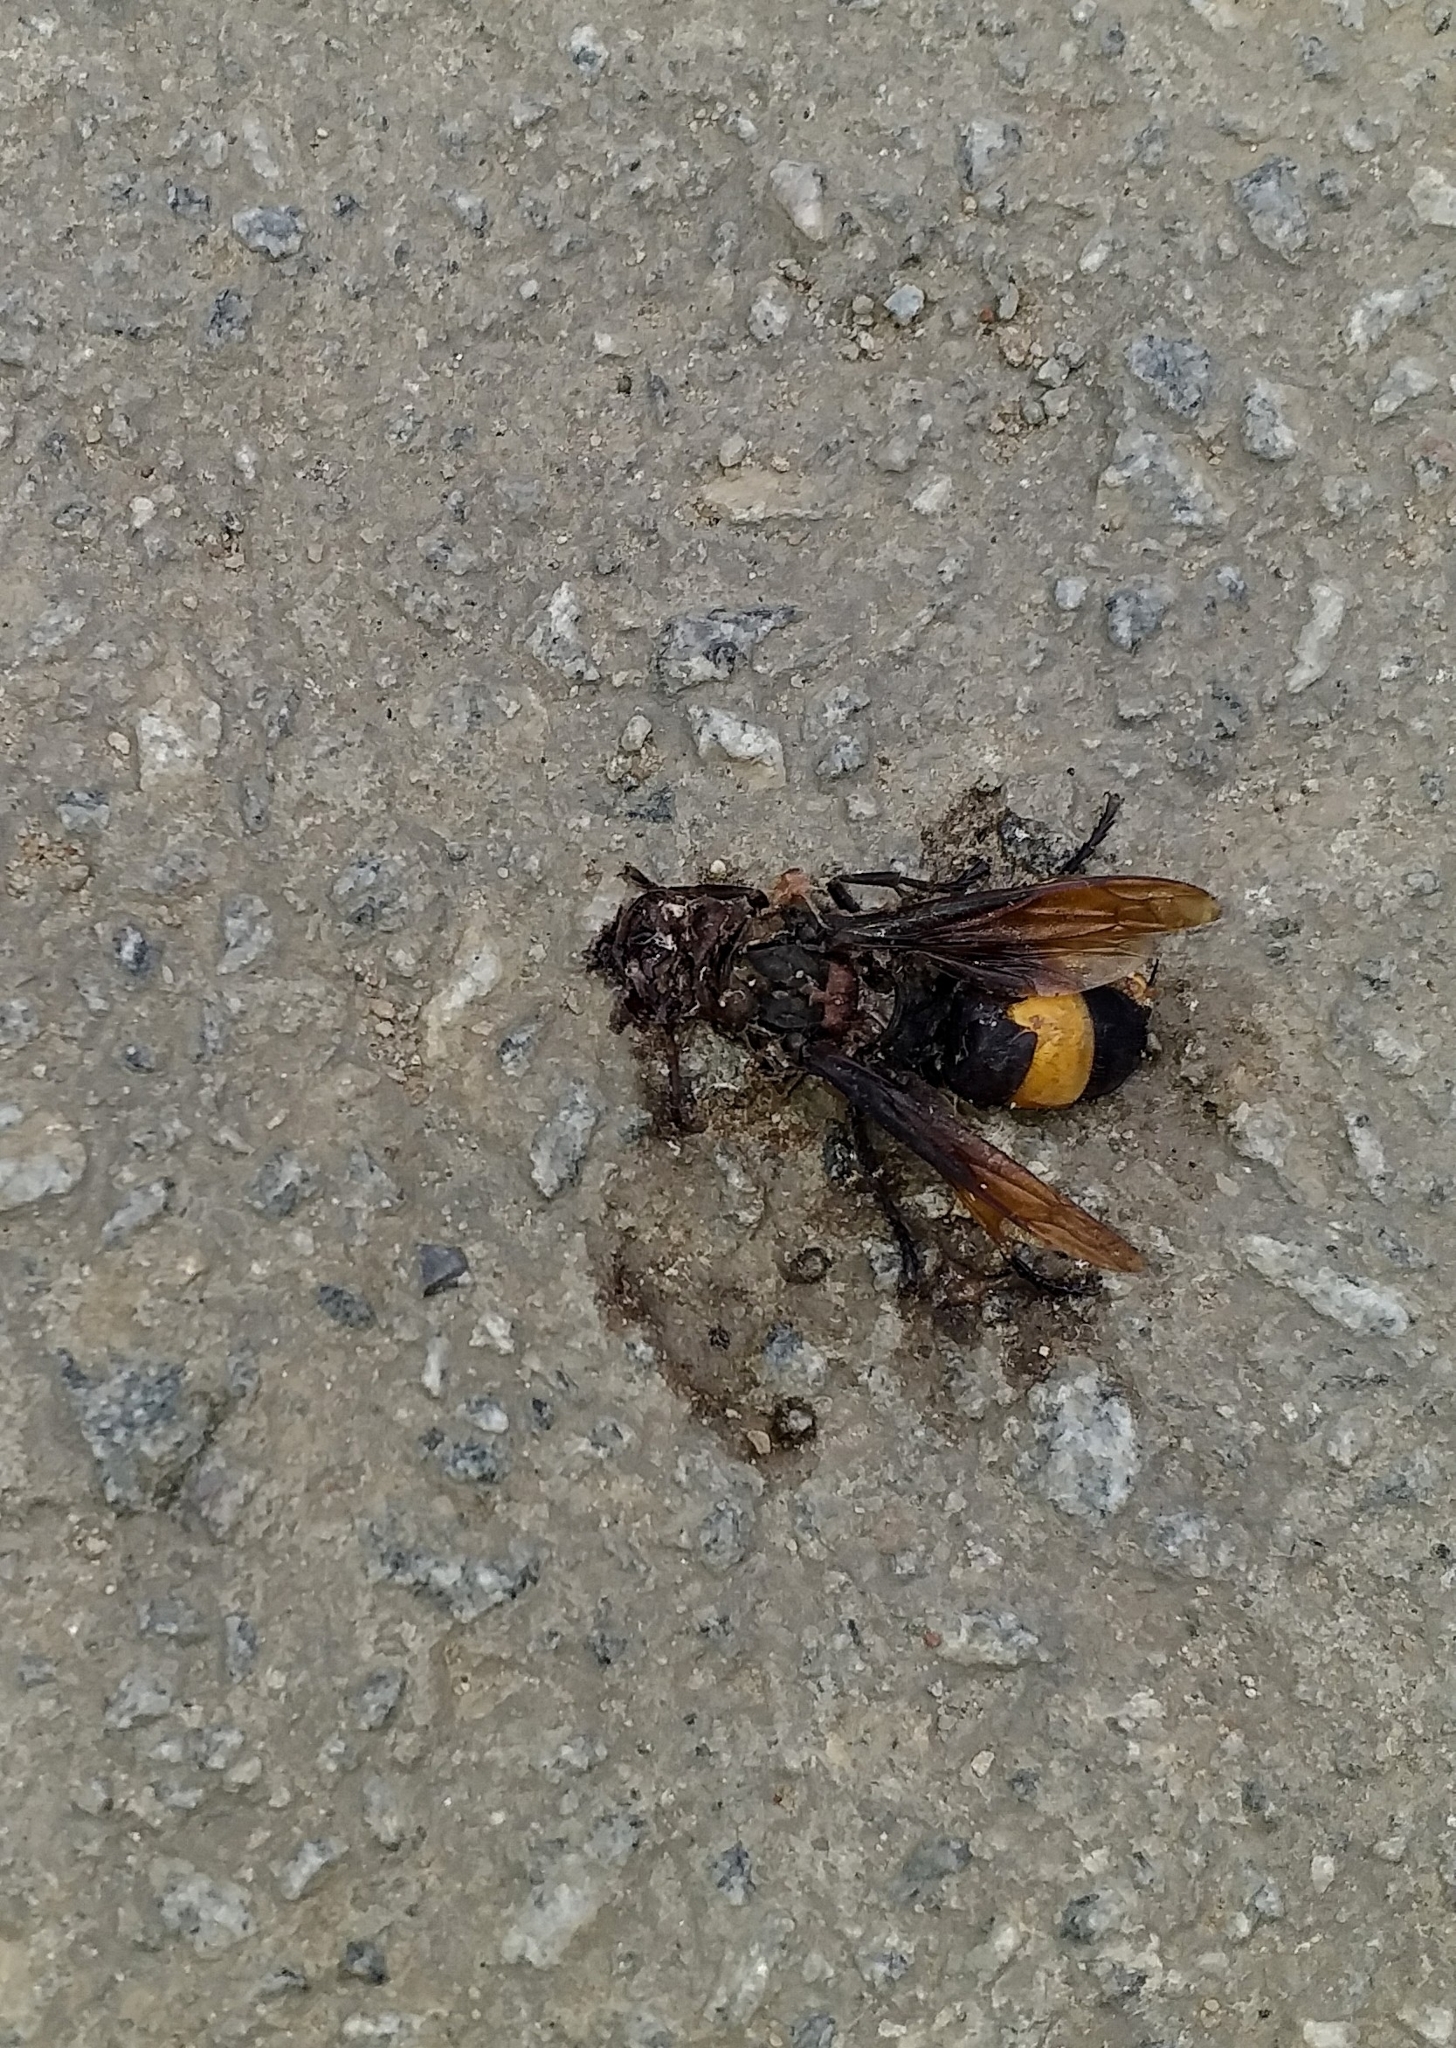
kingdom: Animalia
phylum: Arthropoda
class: Insecta
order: Hymenoptera
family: Vespidae
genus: Vespa
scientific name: Vespa tropica
